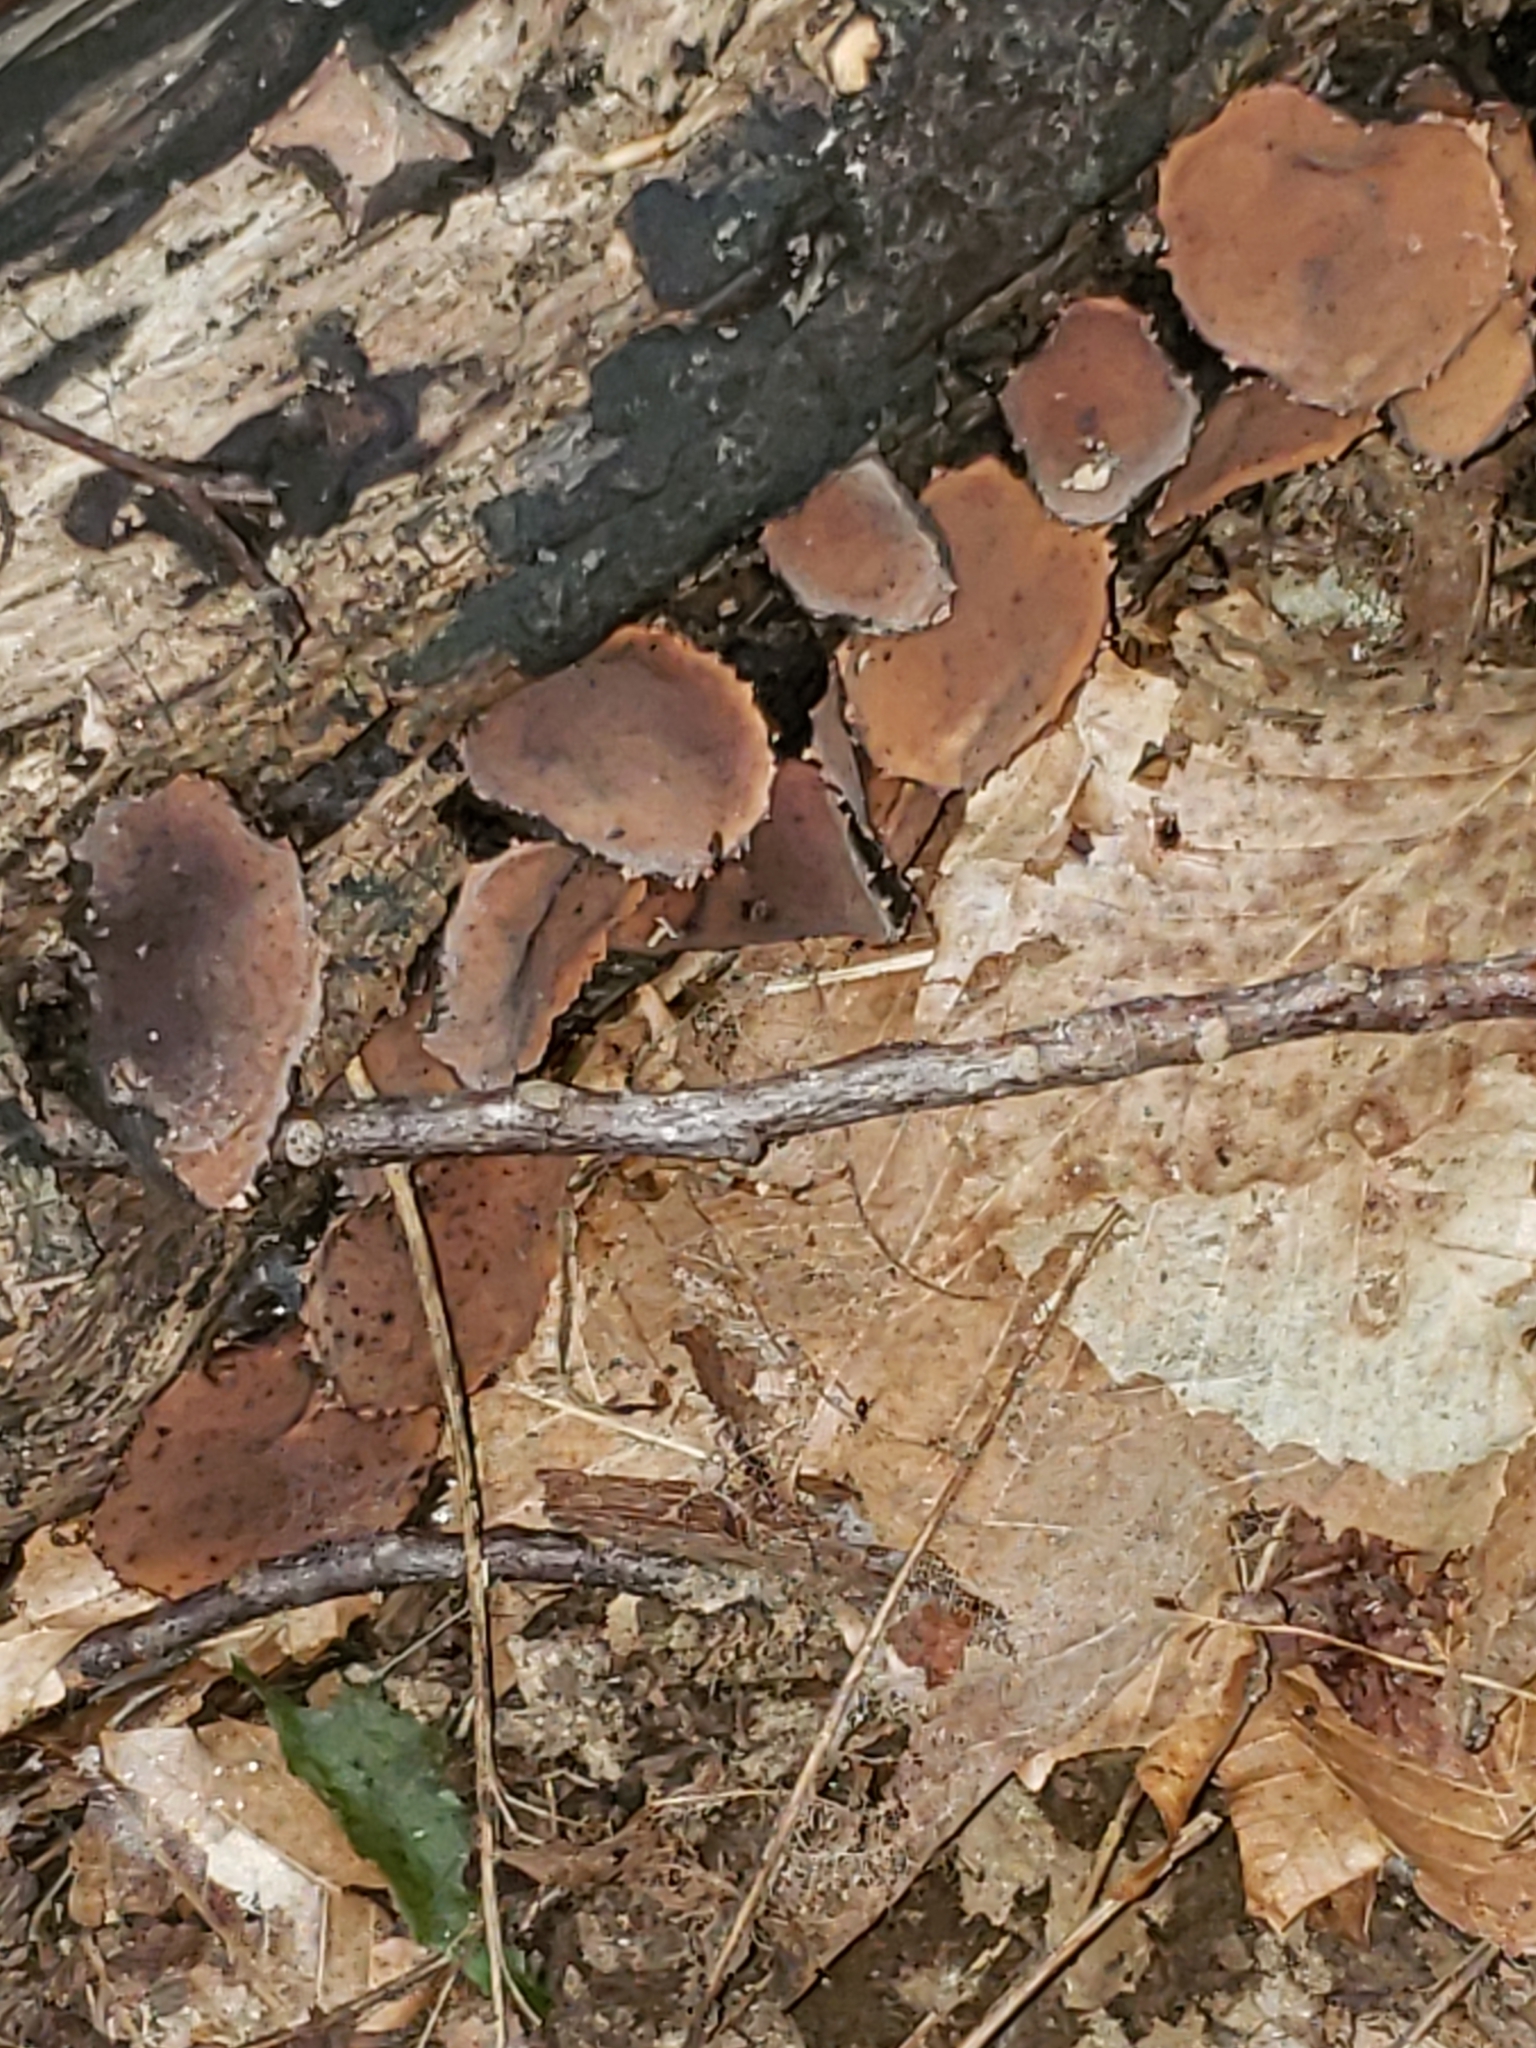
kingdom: Fungi
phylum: Ascomycota
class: Pezizomycetes
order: Pezizales
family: Sarcosomataceae
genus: Galiella
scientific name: Galiella rufa
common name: Hairy rubber cup
